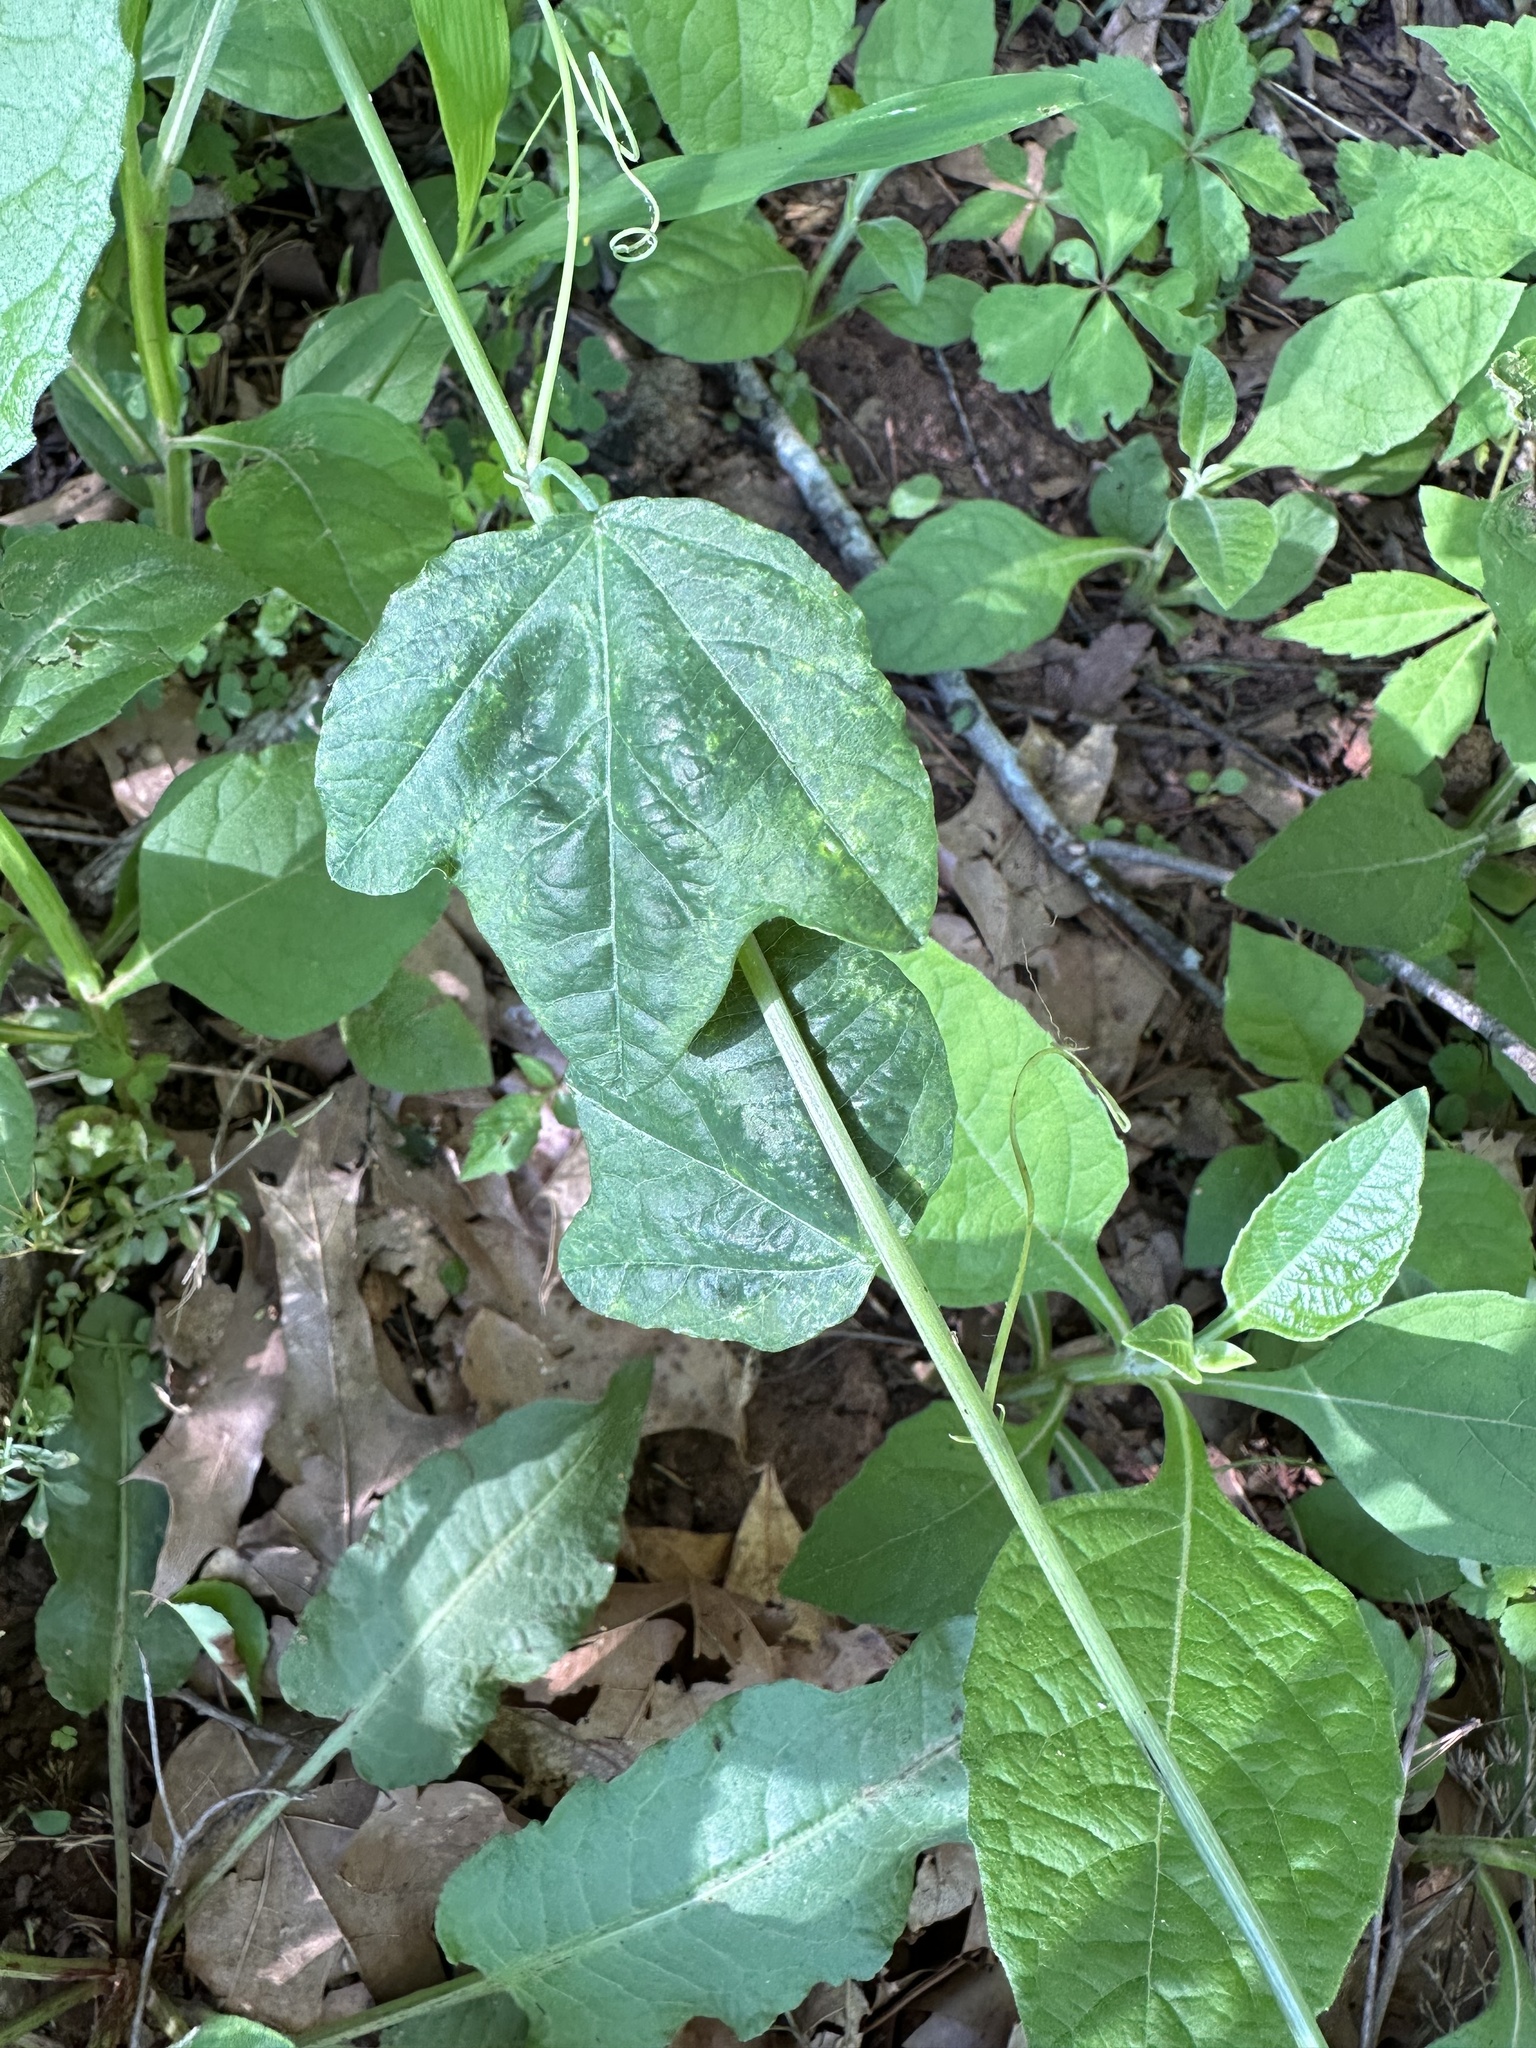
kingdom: Plantae
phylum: Tracheophyta
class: Magnoliopsida
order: Malpighiales
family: Passifloraceae
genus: Passiflora
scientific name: Passiflora lutea
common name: Yellow passionflower
